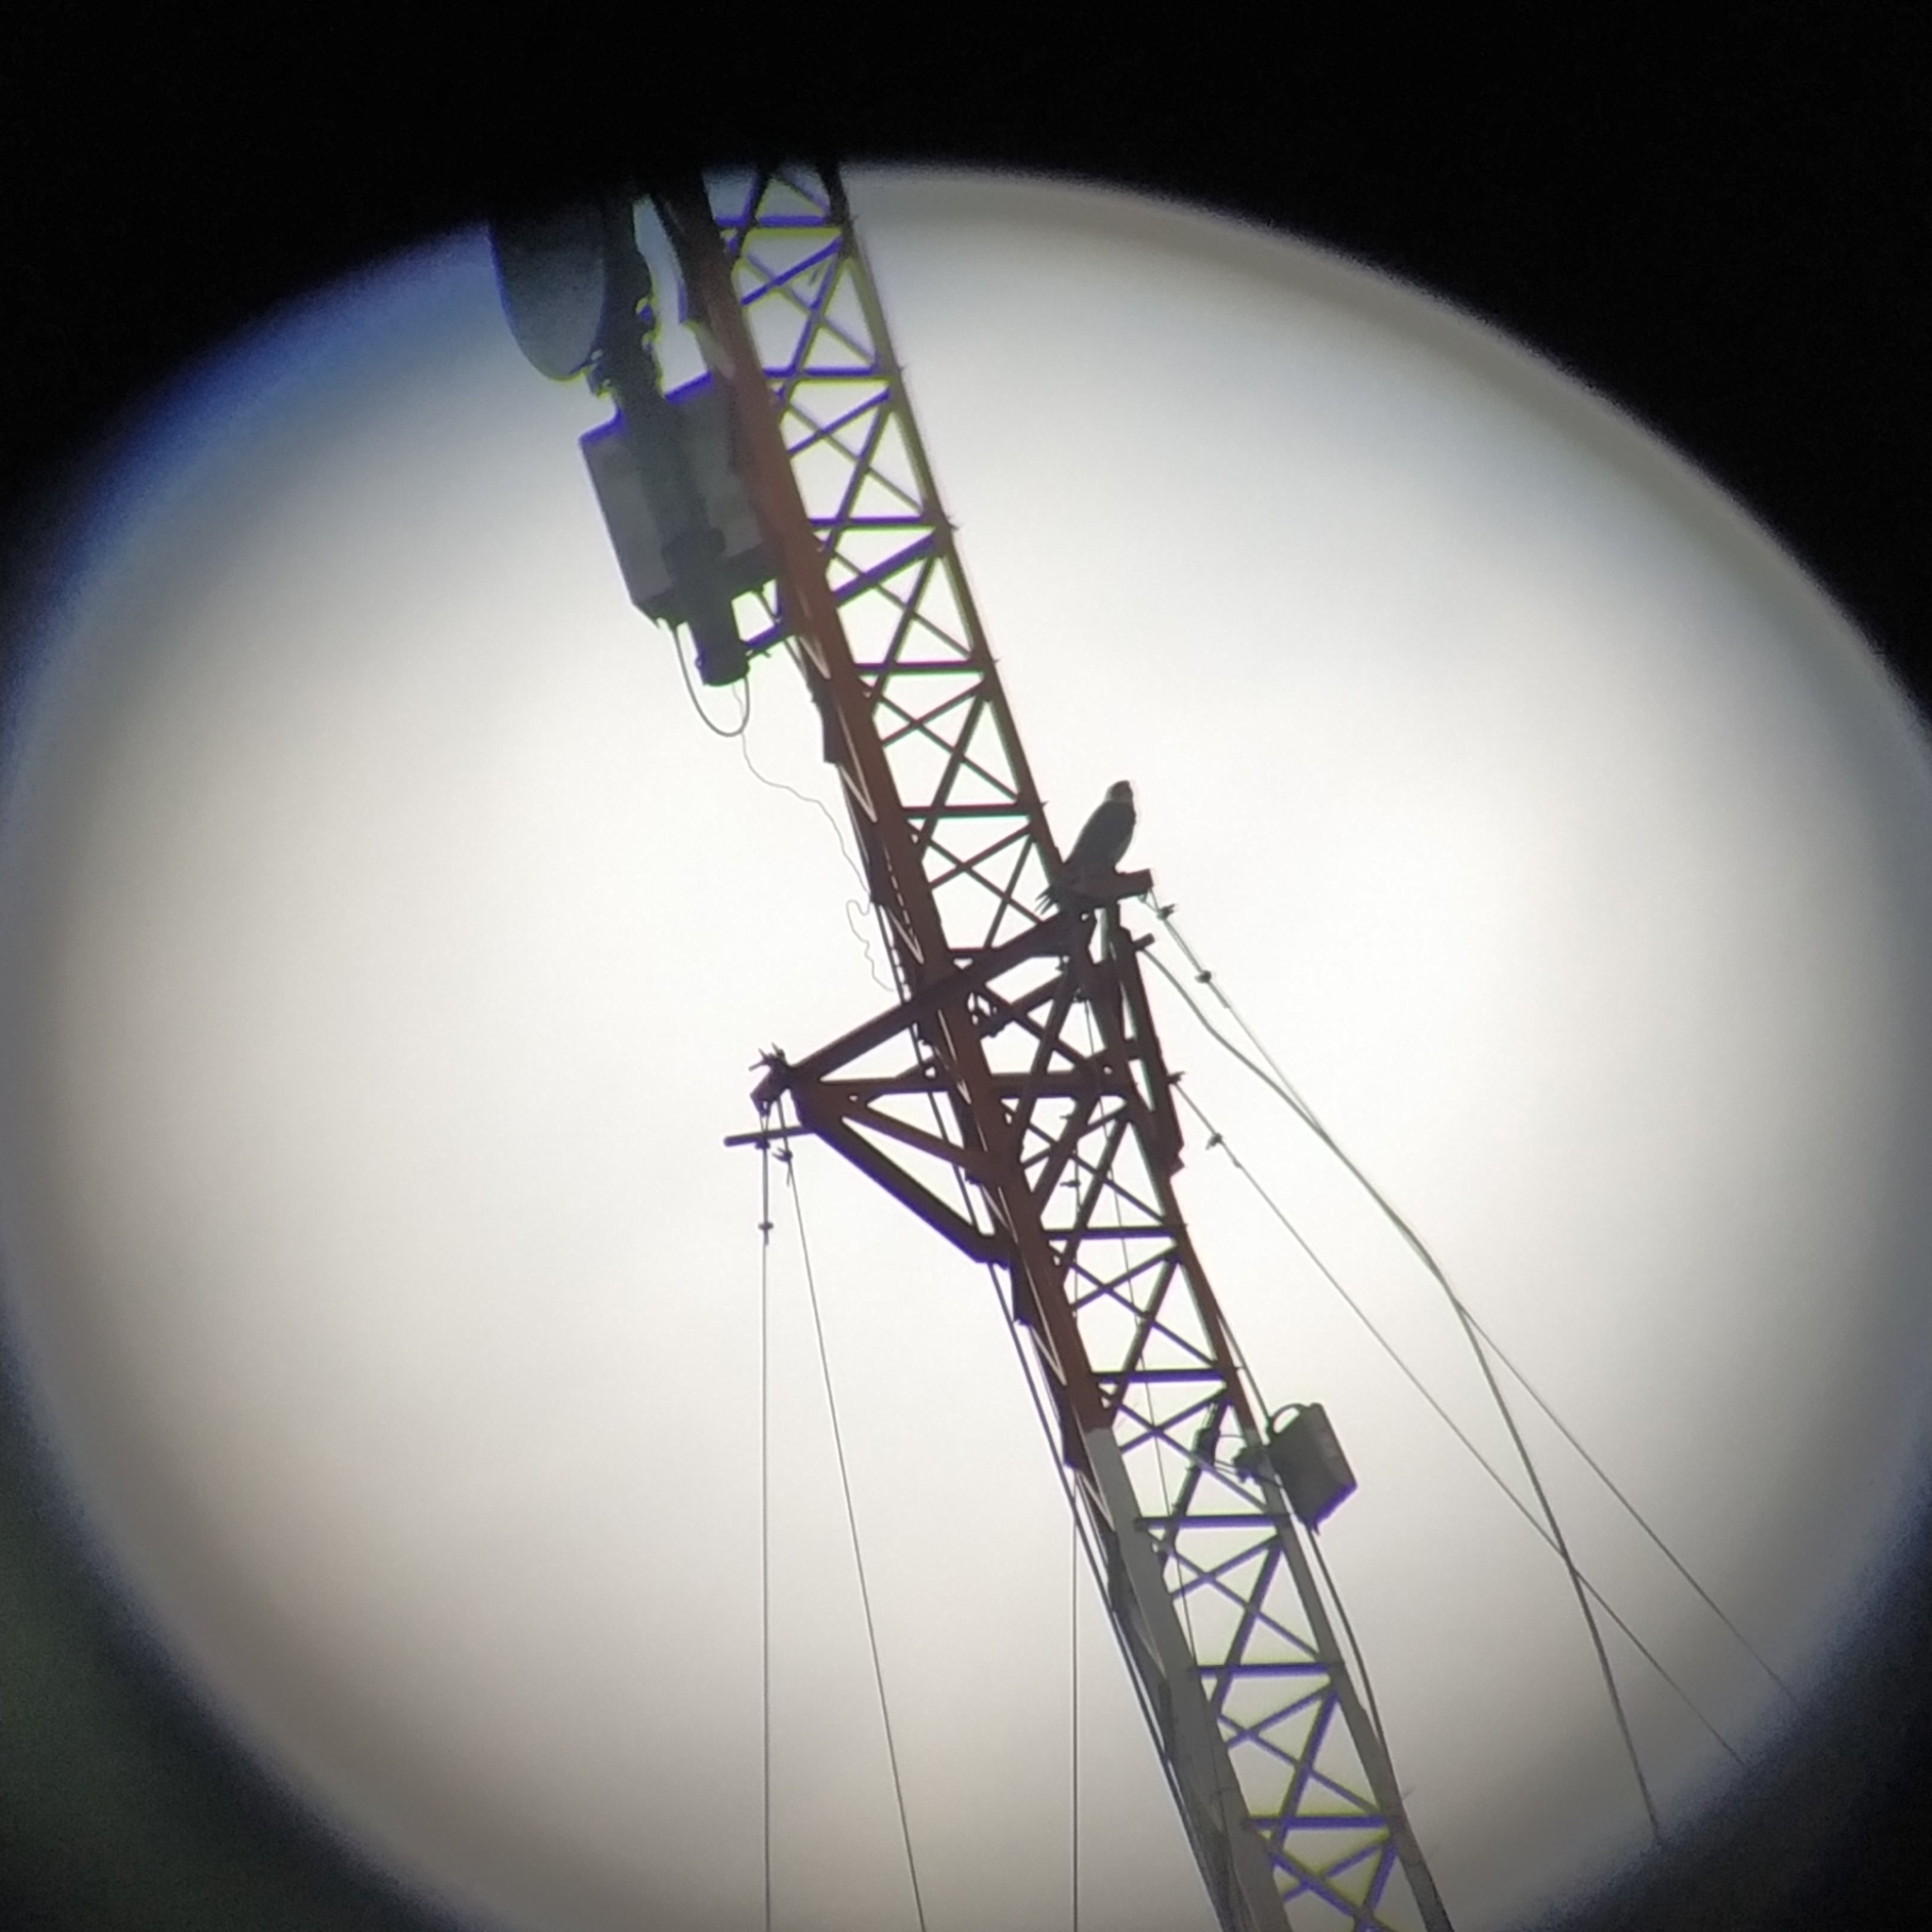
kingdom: Animalia
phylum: Chordata
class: Aves
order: Falconiformes
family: Falconidae
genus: Falco
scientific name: Falco peregrinus
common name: Peregrine falcon
